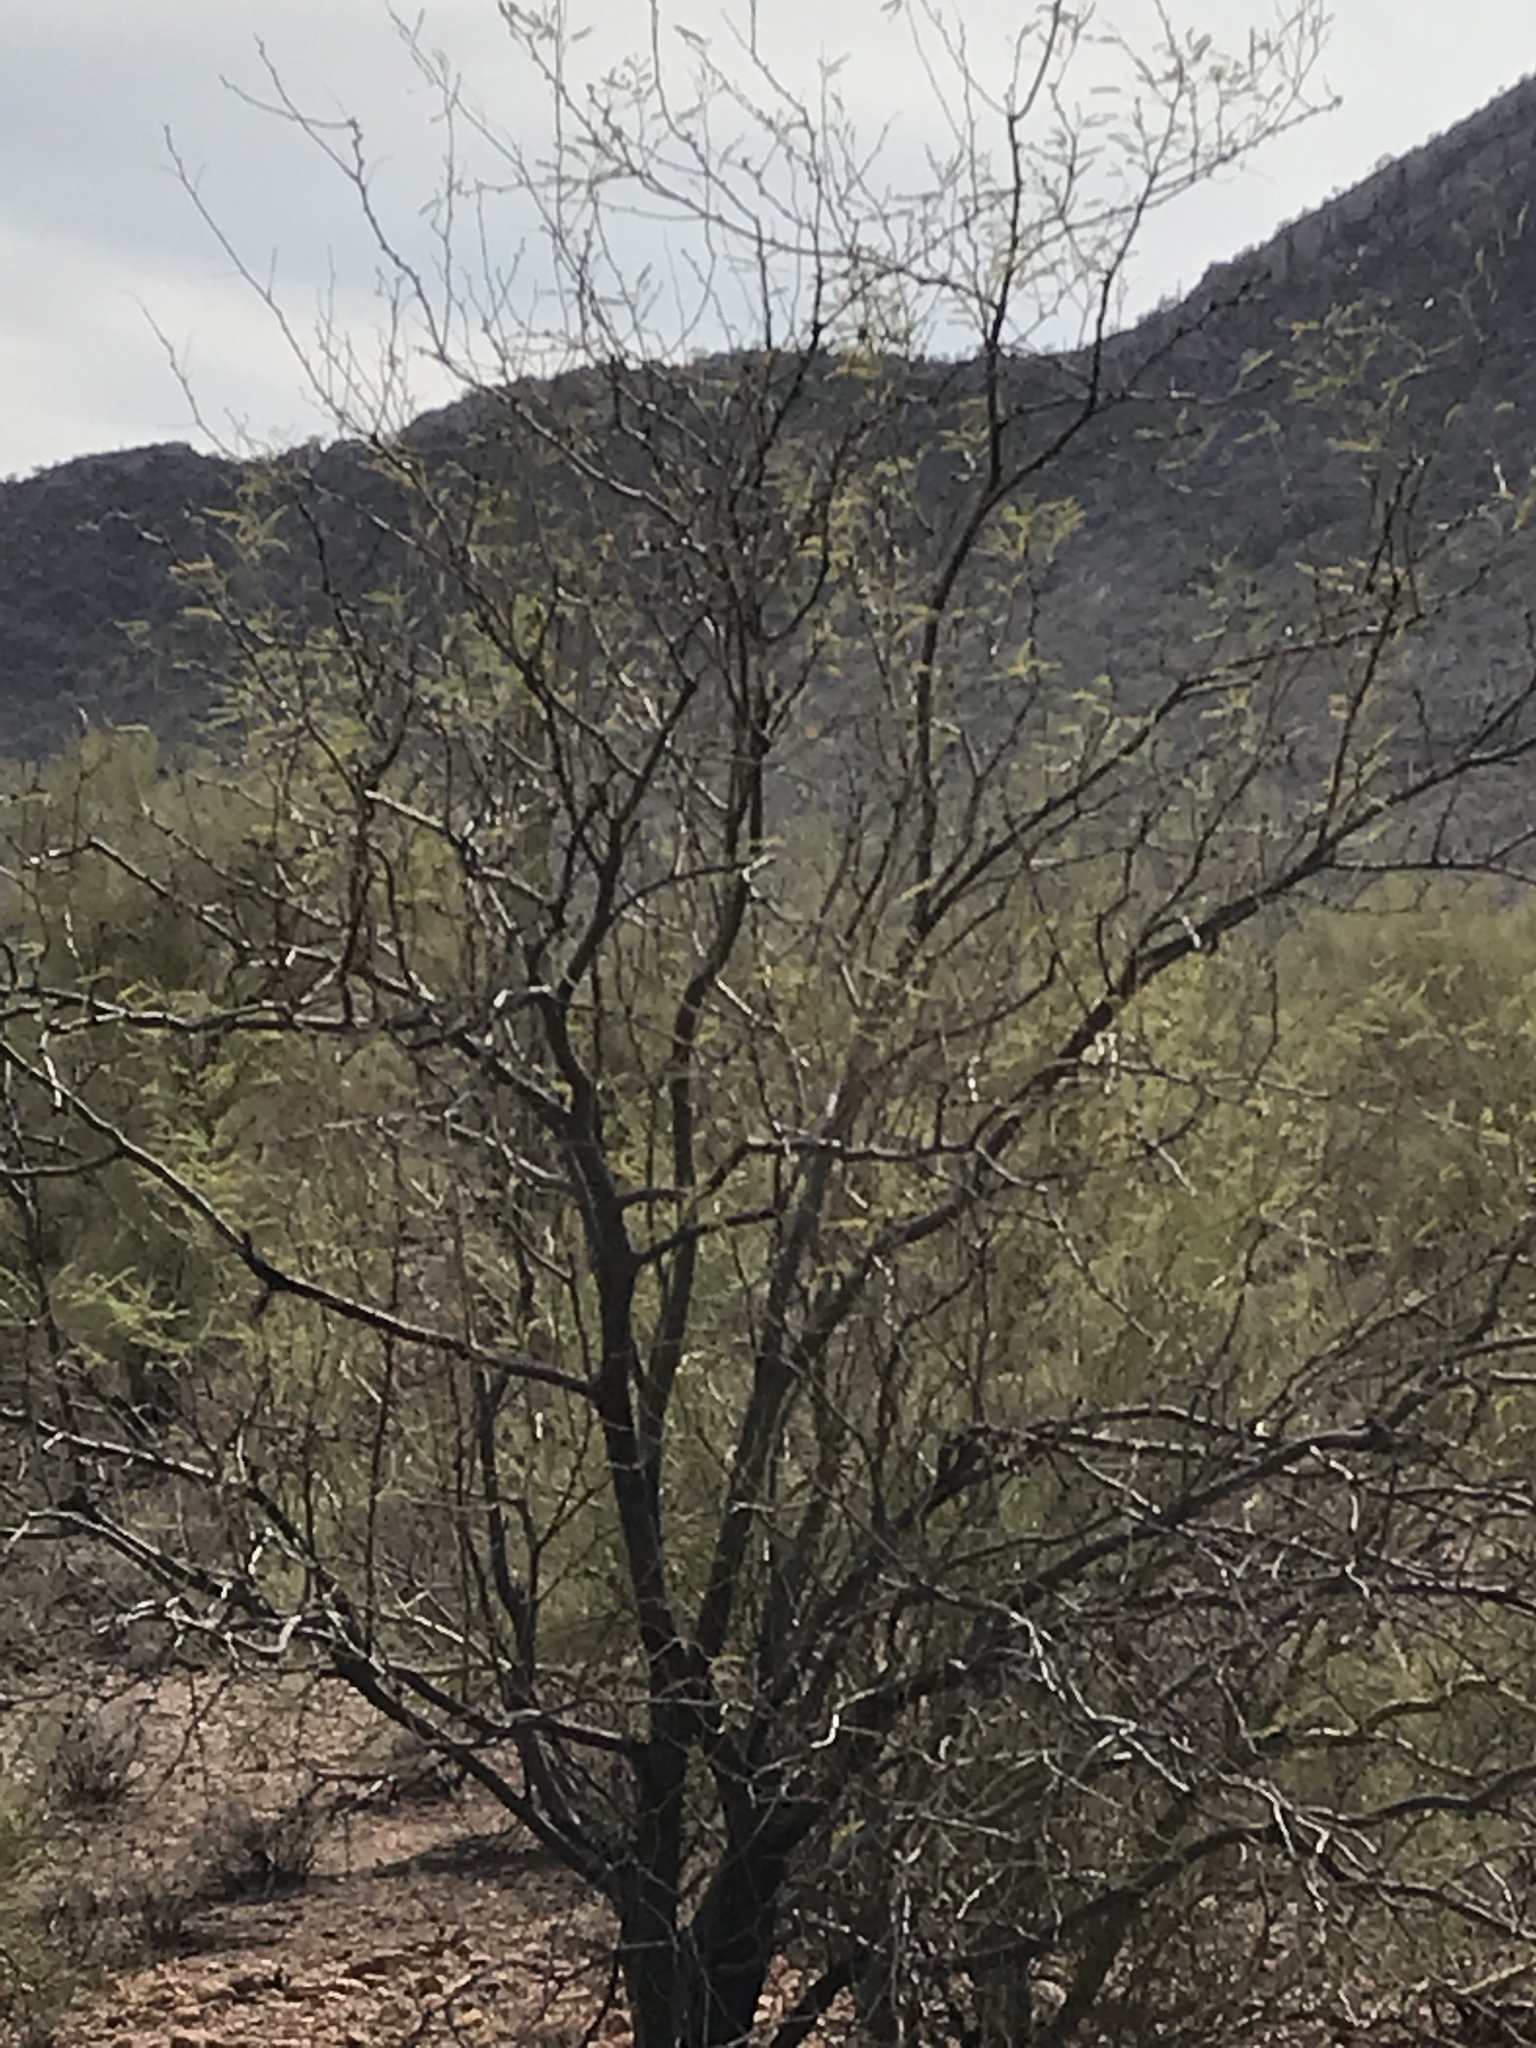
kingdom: Plantae
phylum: Tracheophyta
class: Magnoliopsida
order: Fabales
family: Fabaceae
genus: Prosopis
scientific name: Prosopis velutina
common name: Velvet mesquite
